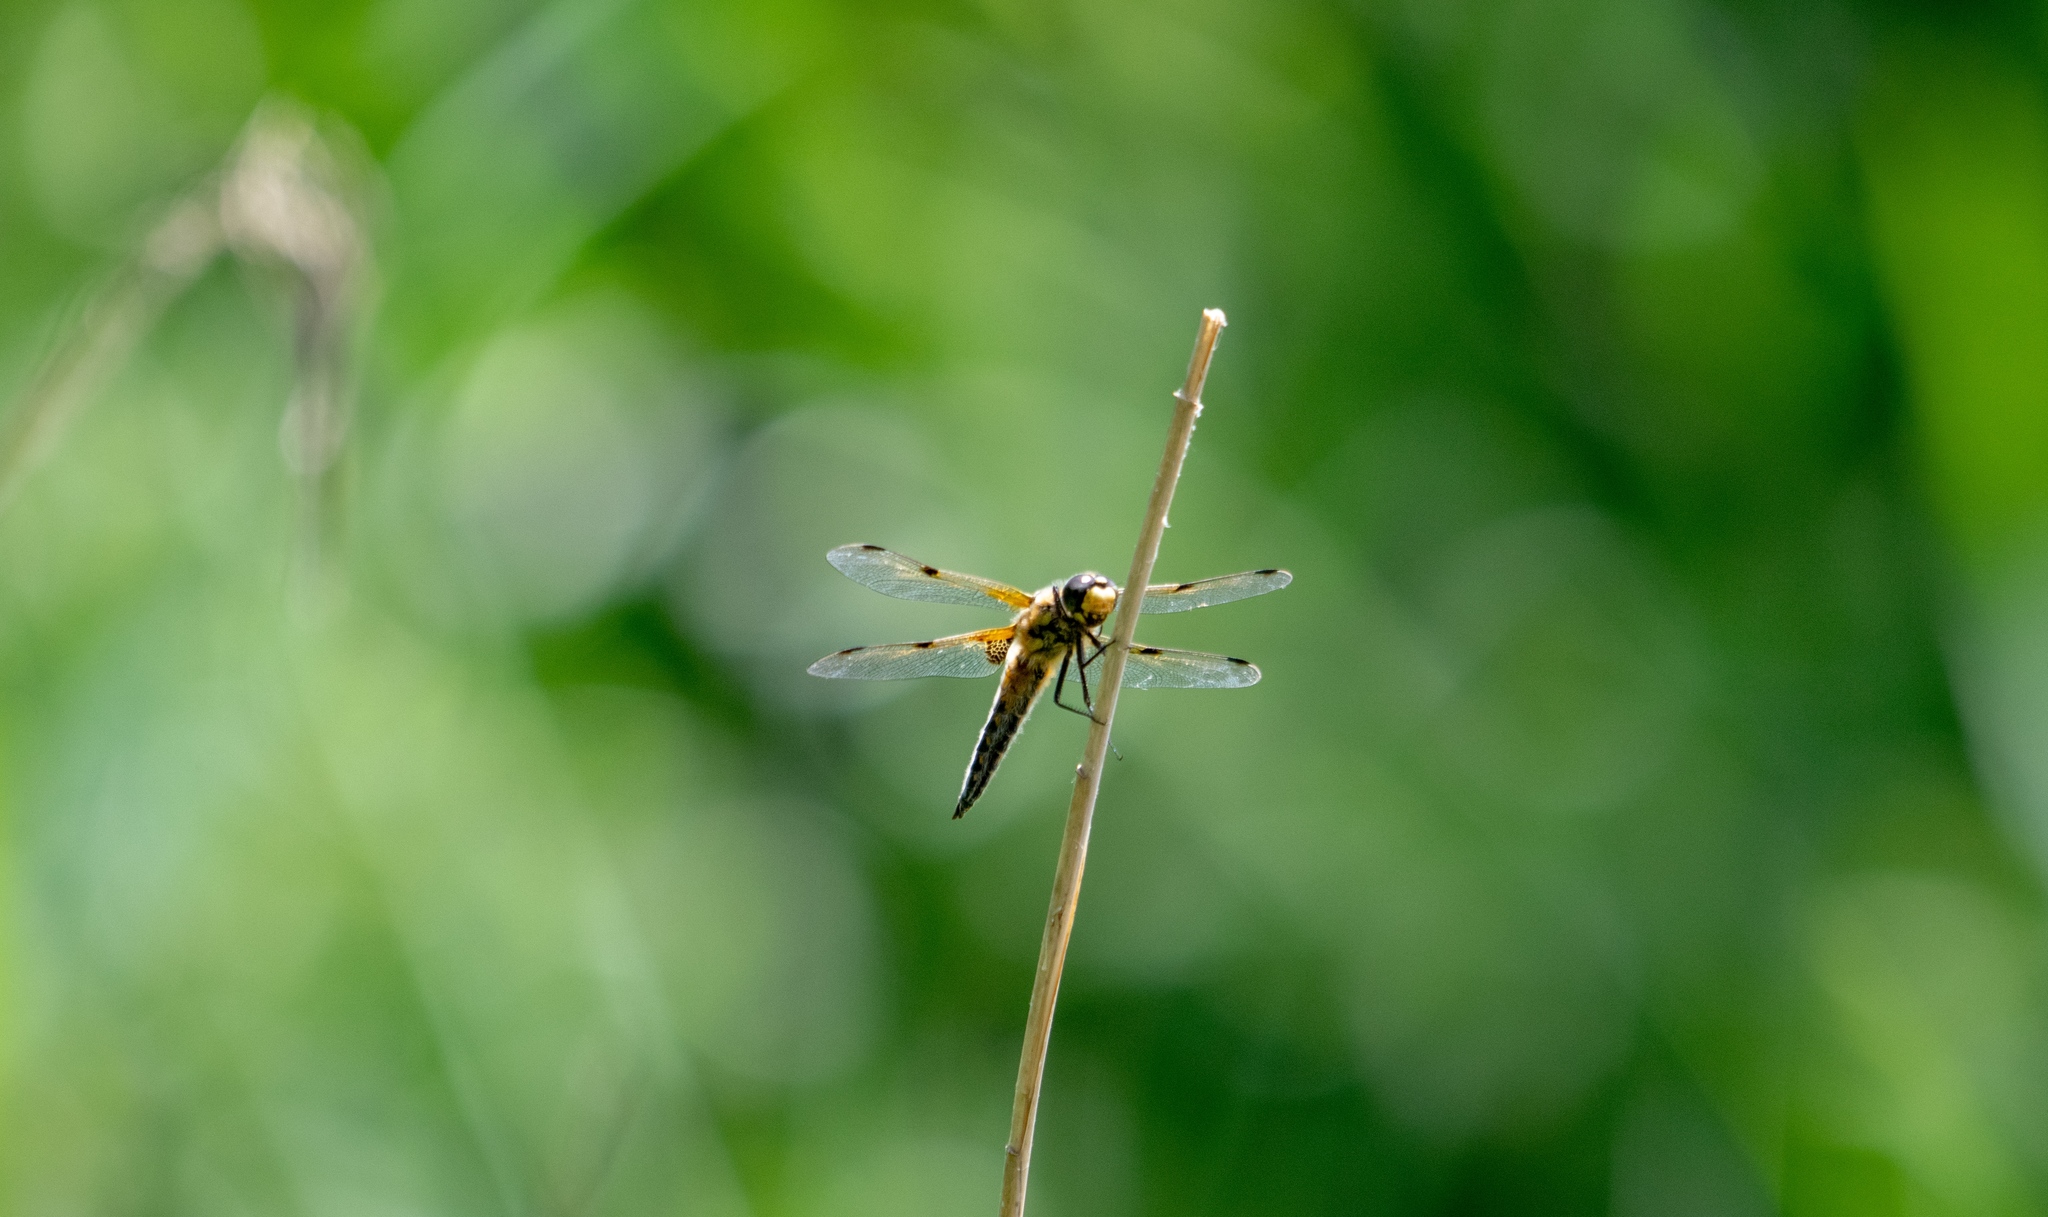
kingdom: Animalia
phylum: Arthropoda
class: Insecta
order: Odonata
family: Libellulidae
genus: Libellula
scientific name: Libellula quadrimaculata
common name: Four-spotted chaser
